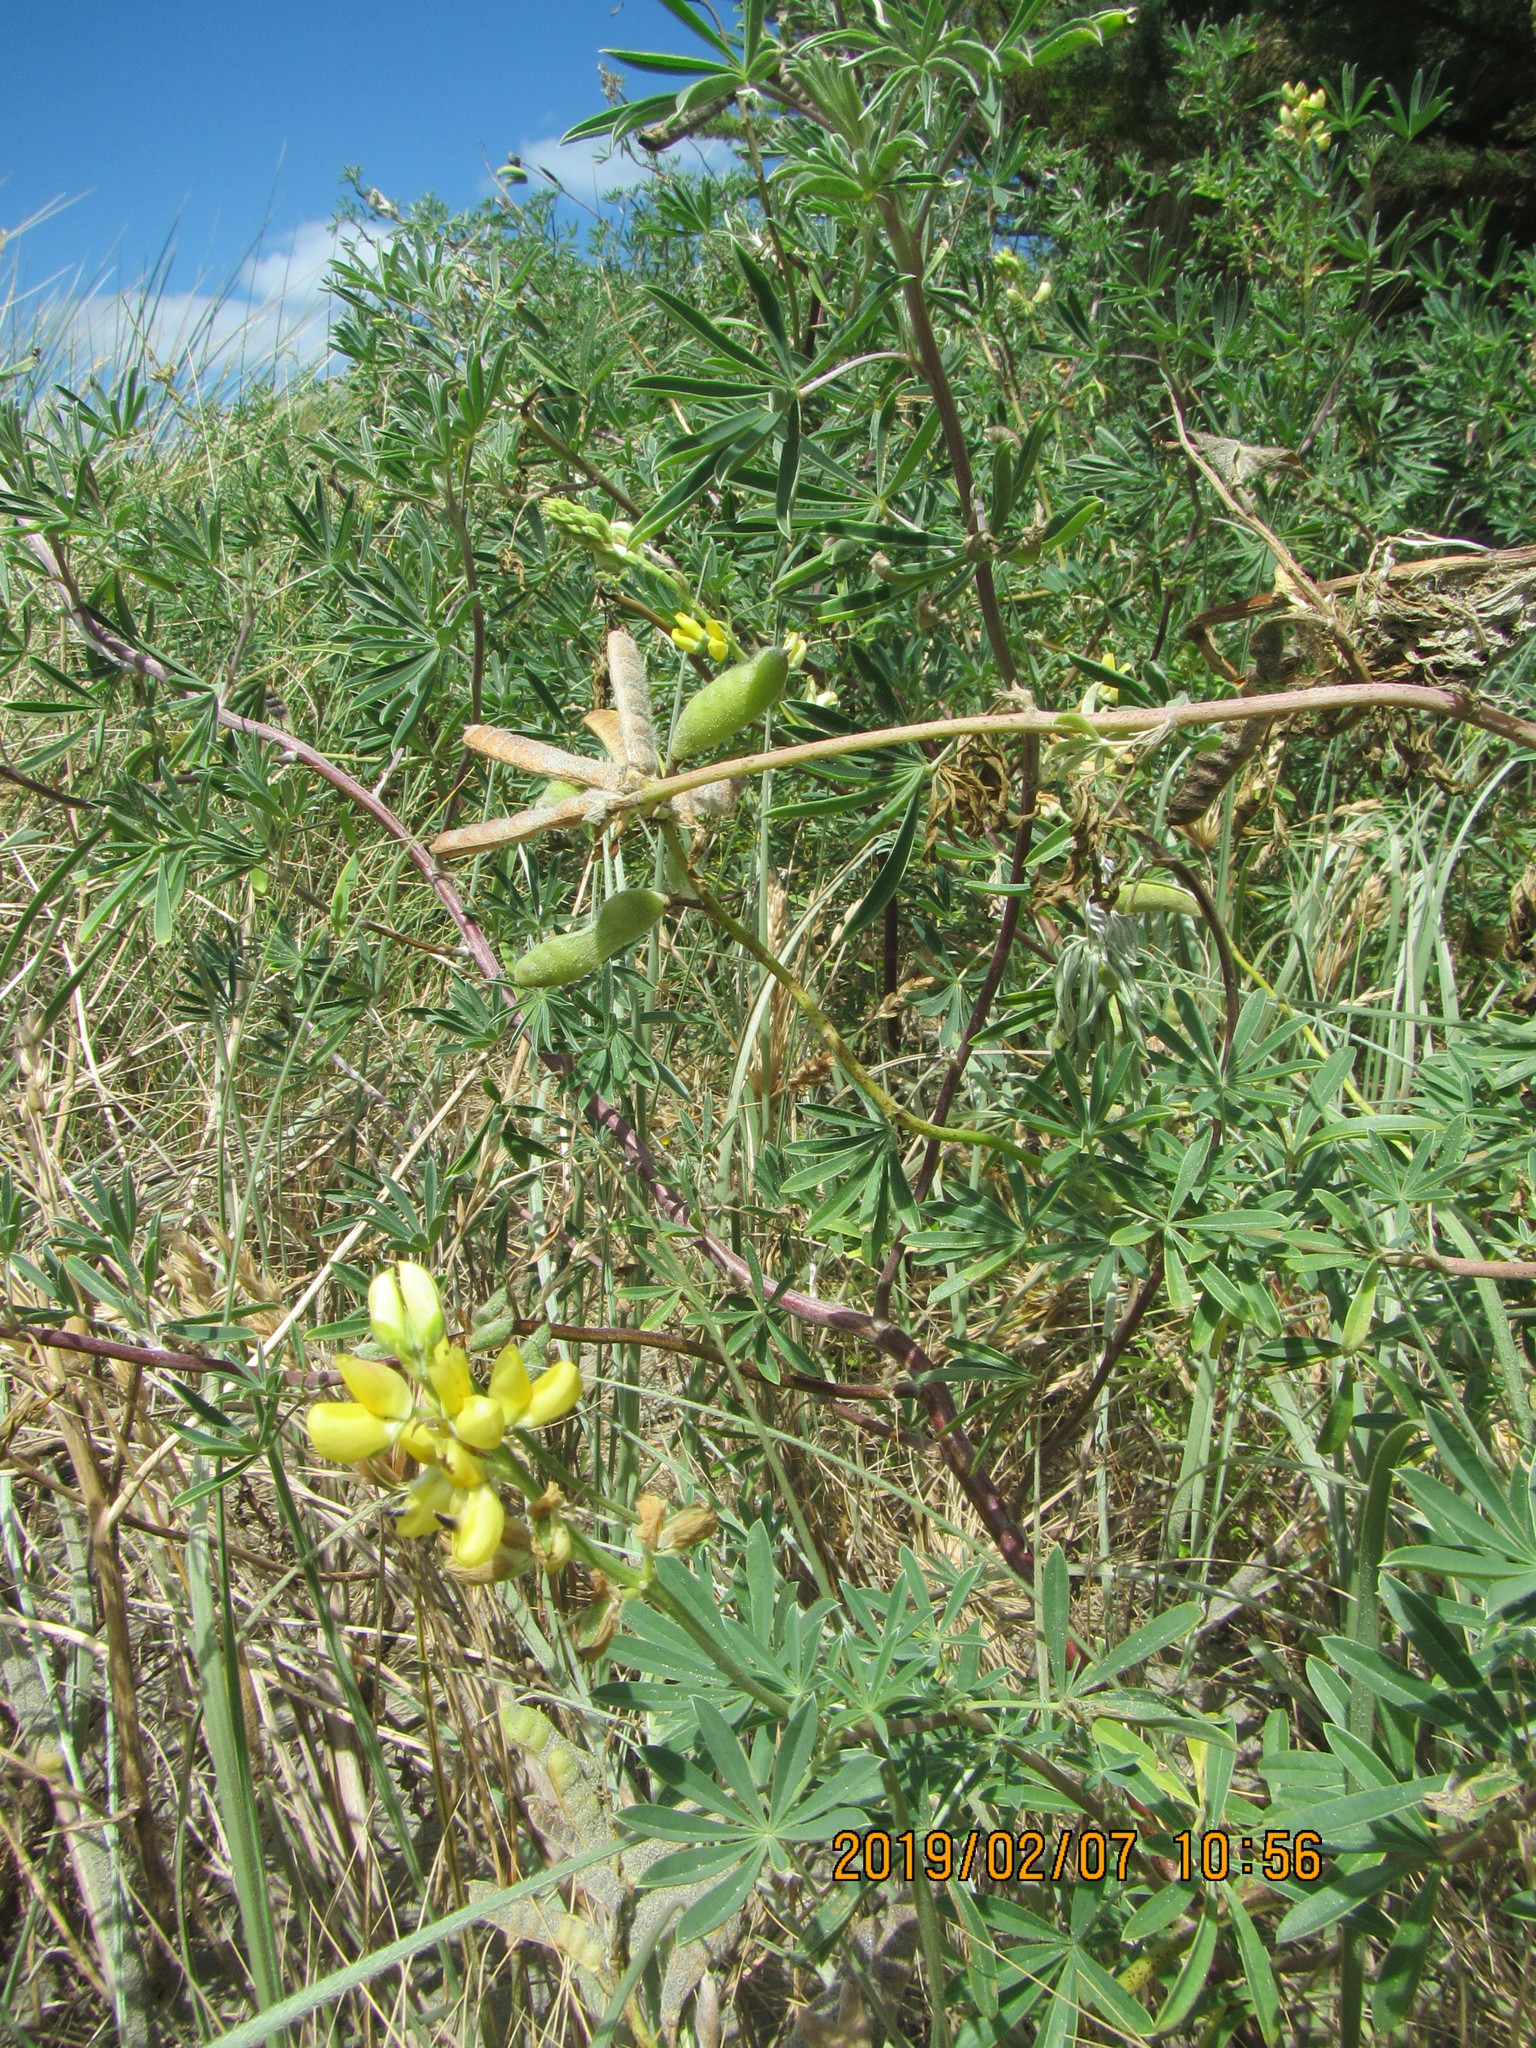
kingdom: Plantae
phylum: Tracheophyta
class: Magnoliopsida
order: Fabales
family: Fabaceae
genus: Lupinus
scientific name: Lupinus arboreus
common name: Yellow bush lupine
